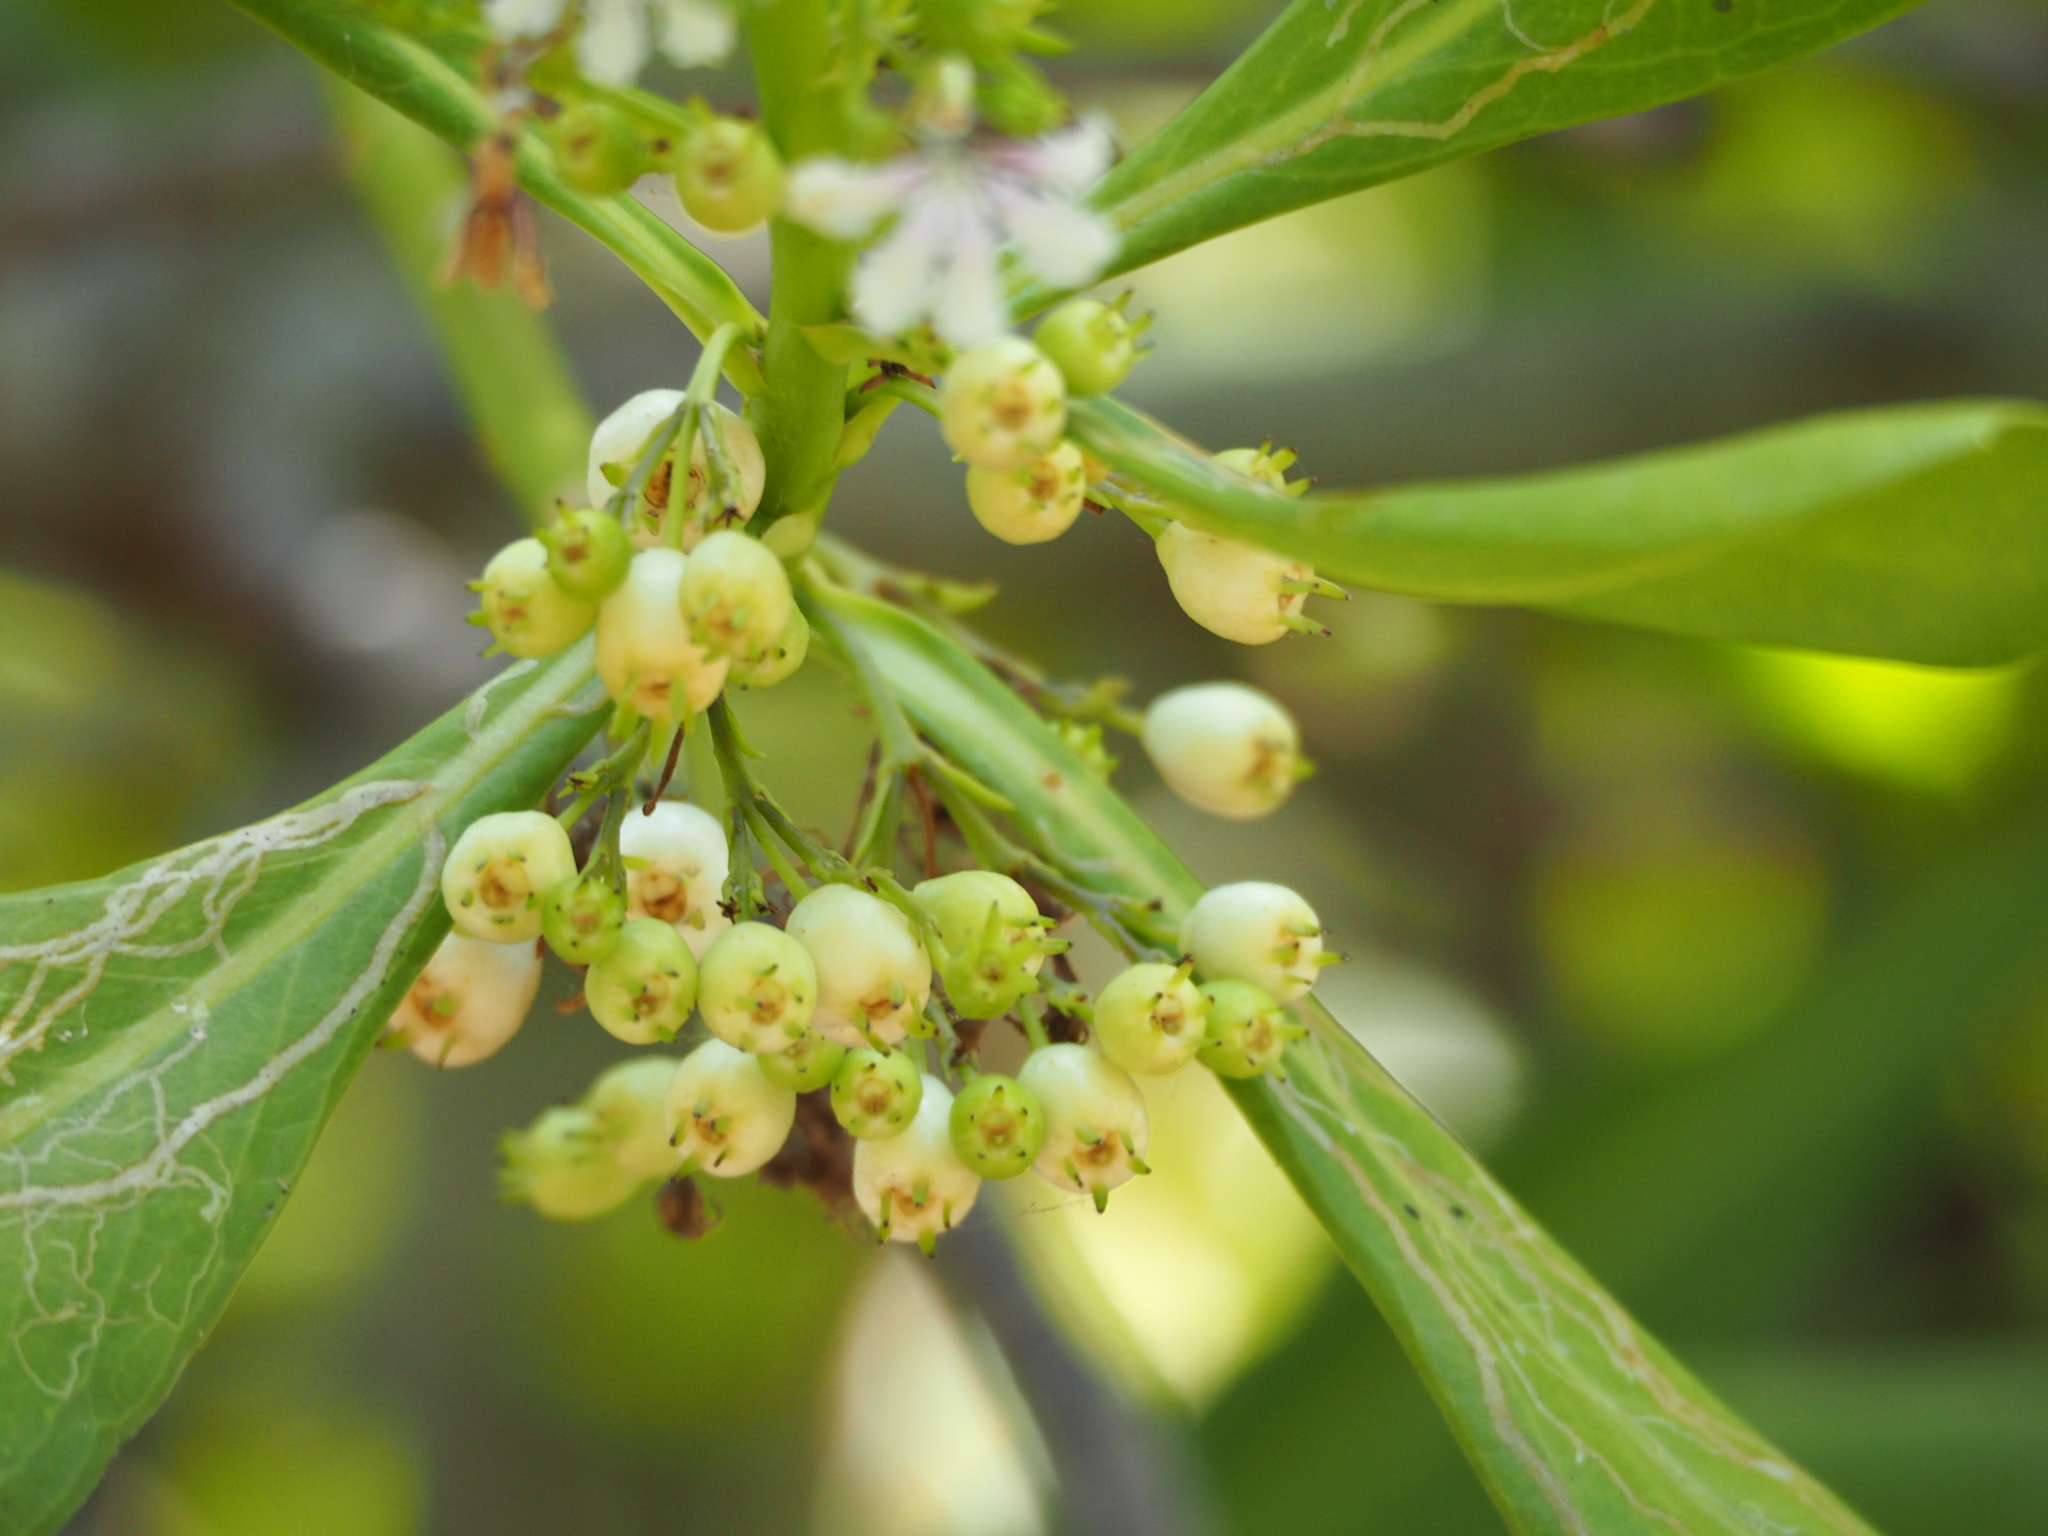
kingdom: Plantae
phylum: Tracheophyta
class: Magnoliopsida
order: Asterales
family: Goodeniaceae
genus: Scaevola
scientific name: Scaevola taccada
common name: Sea lettucetree
